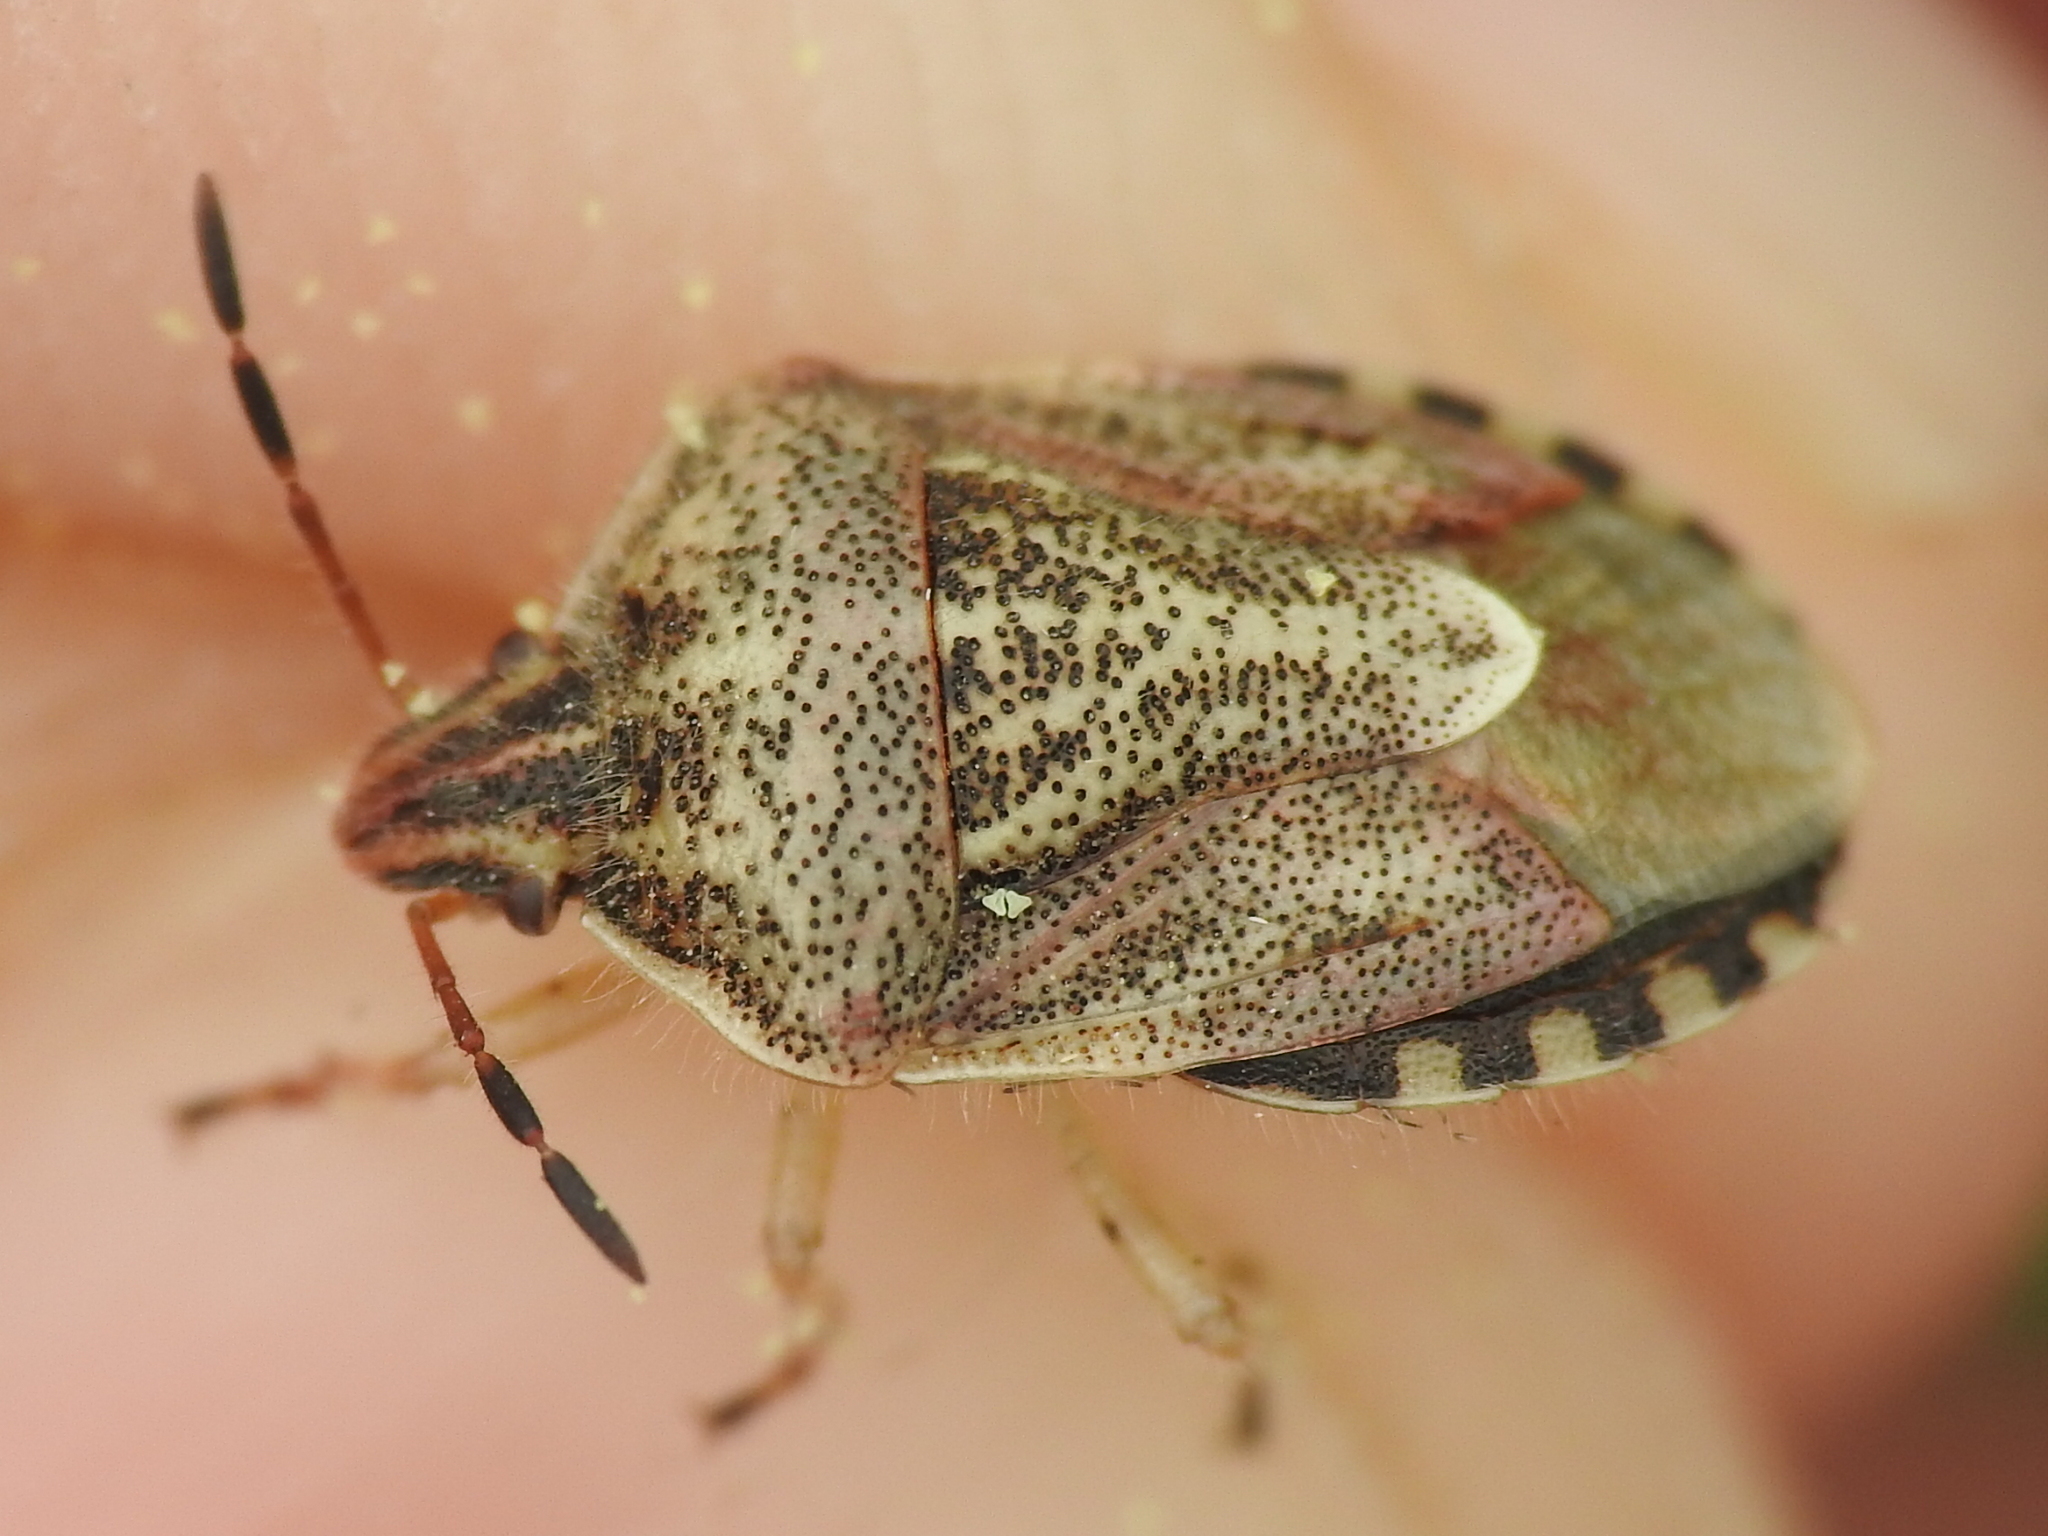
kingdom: Animalia
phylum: Arthropoda
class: Insecta
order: Hemiptera
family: Pentatomidae
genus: Trichopepla
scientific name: Trichopepla semivittata
